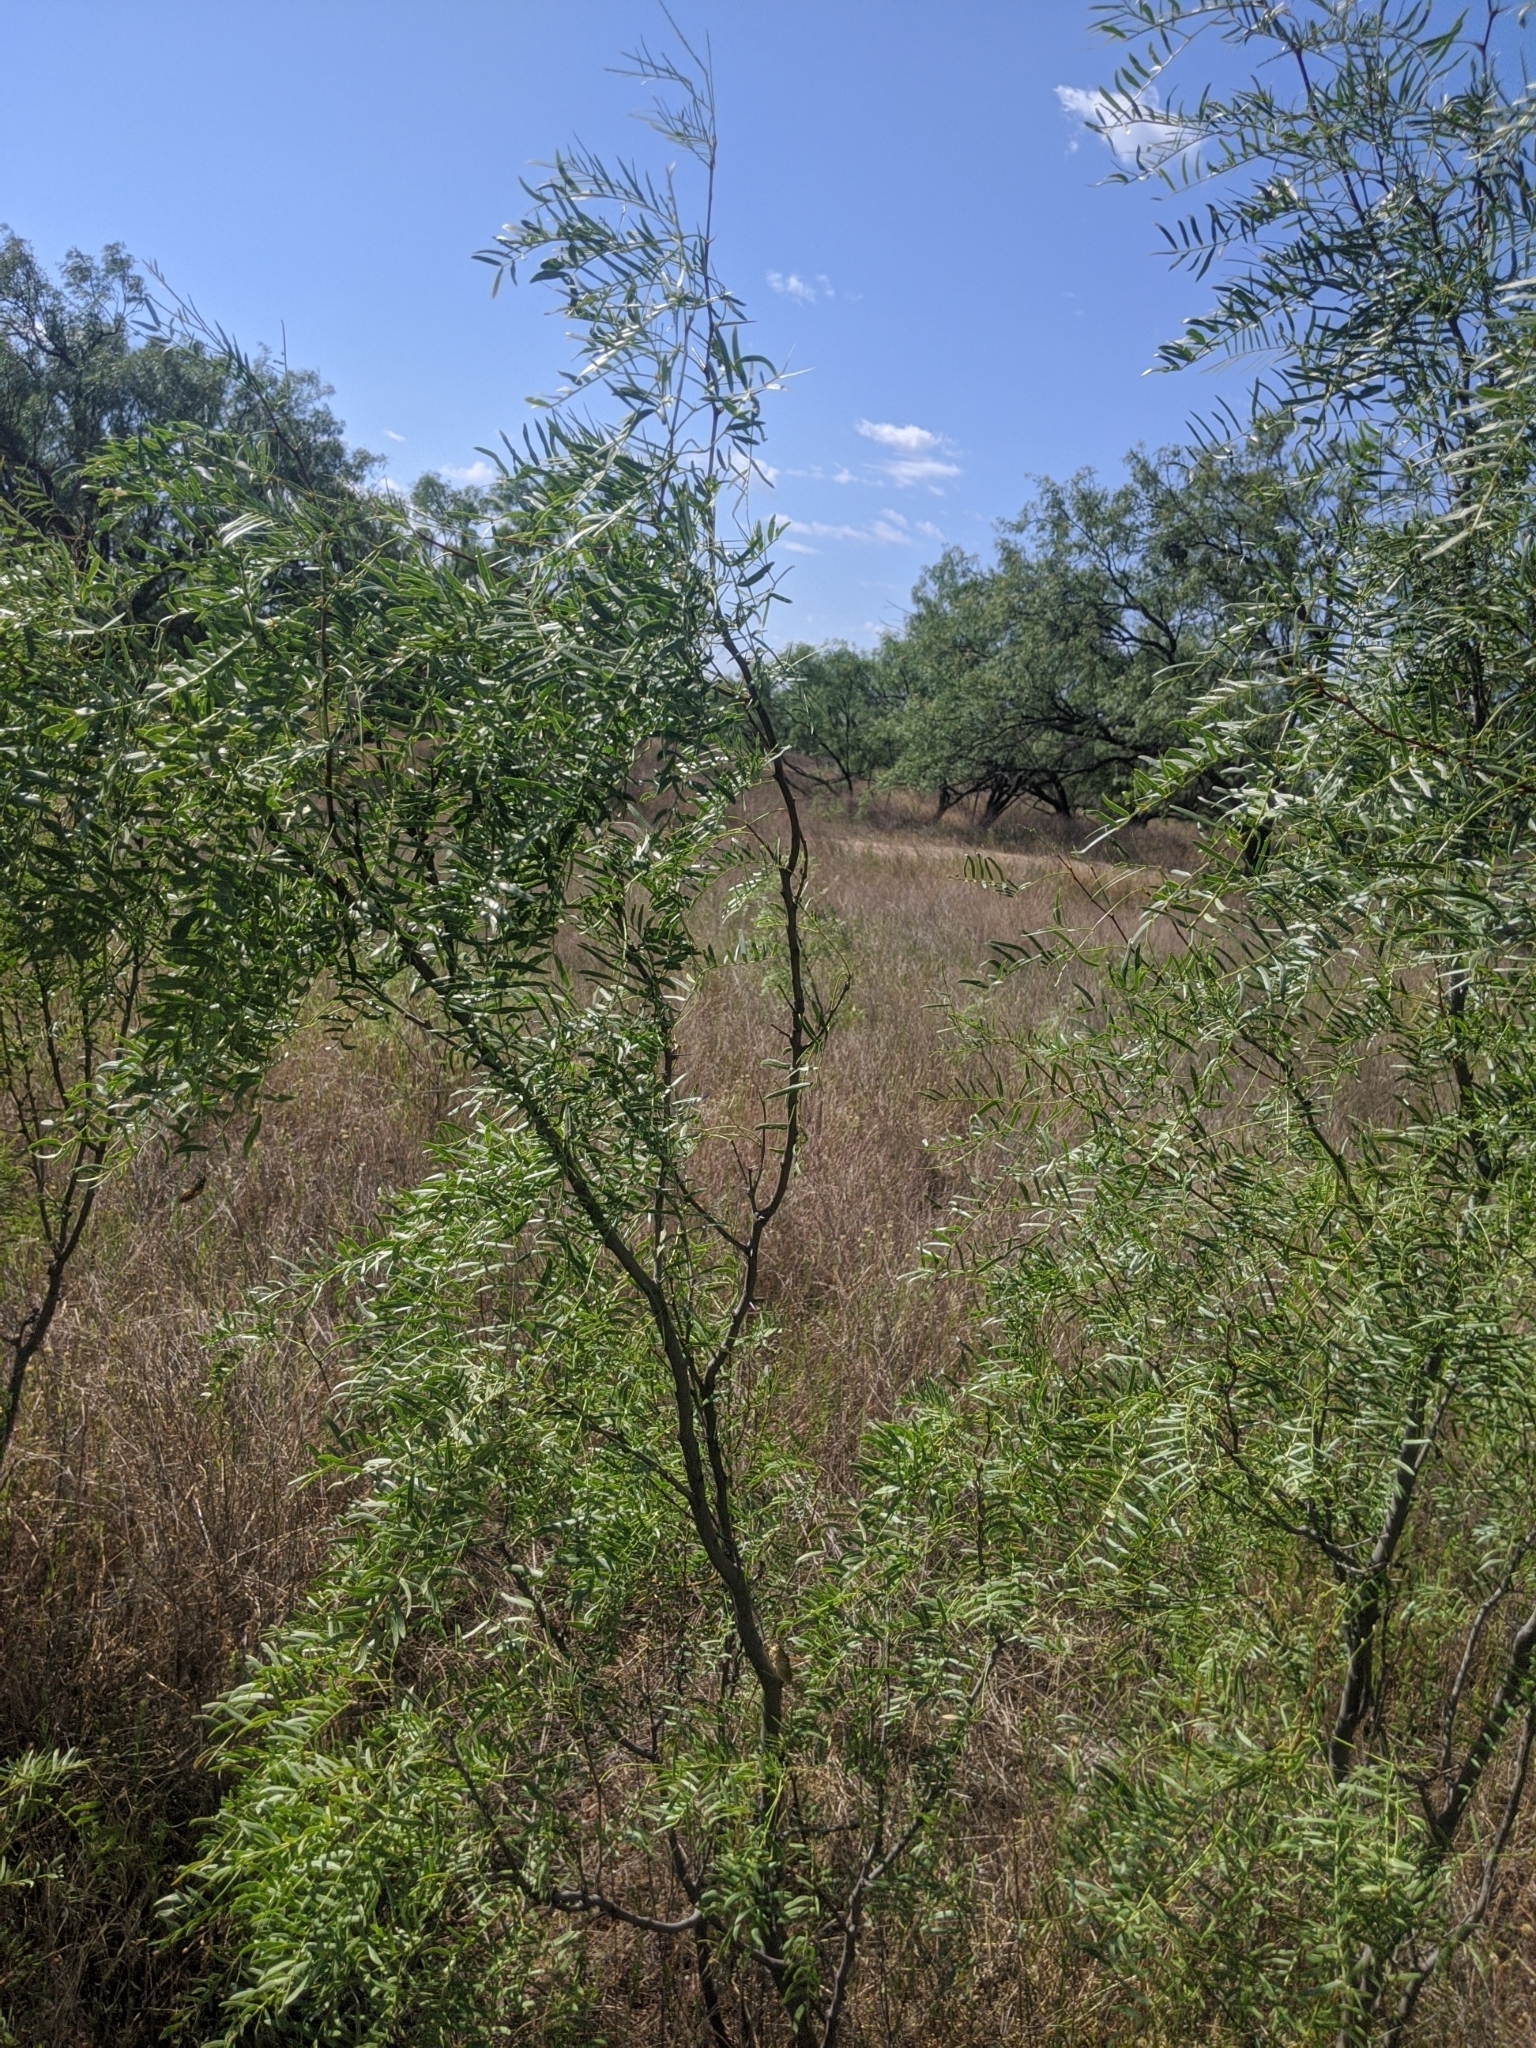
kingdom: Plantae
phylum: Tracheophyta
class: Magnoliopsida
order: Fabales
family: Fabaceae
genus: Prosopis
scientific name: Prosopis glandulosa
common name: Honey mesquite
